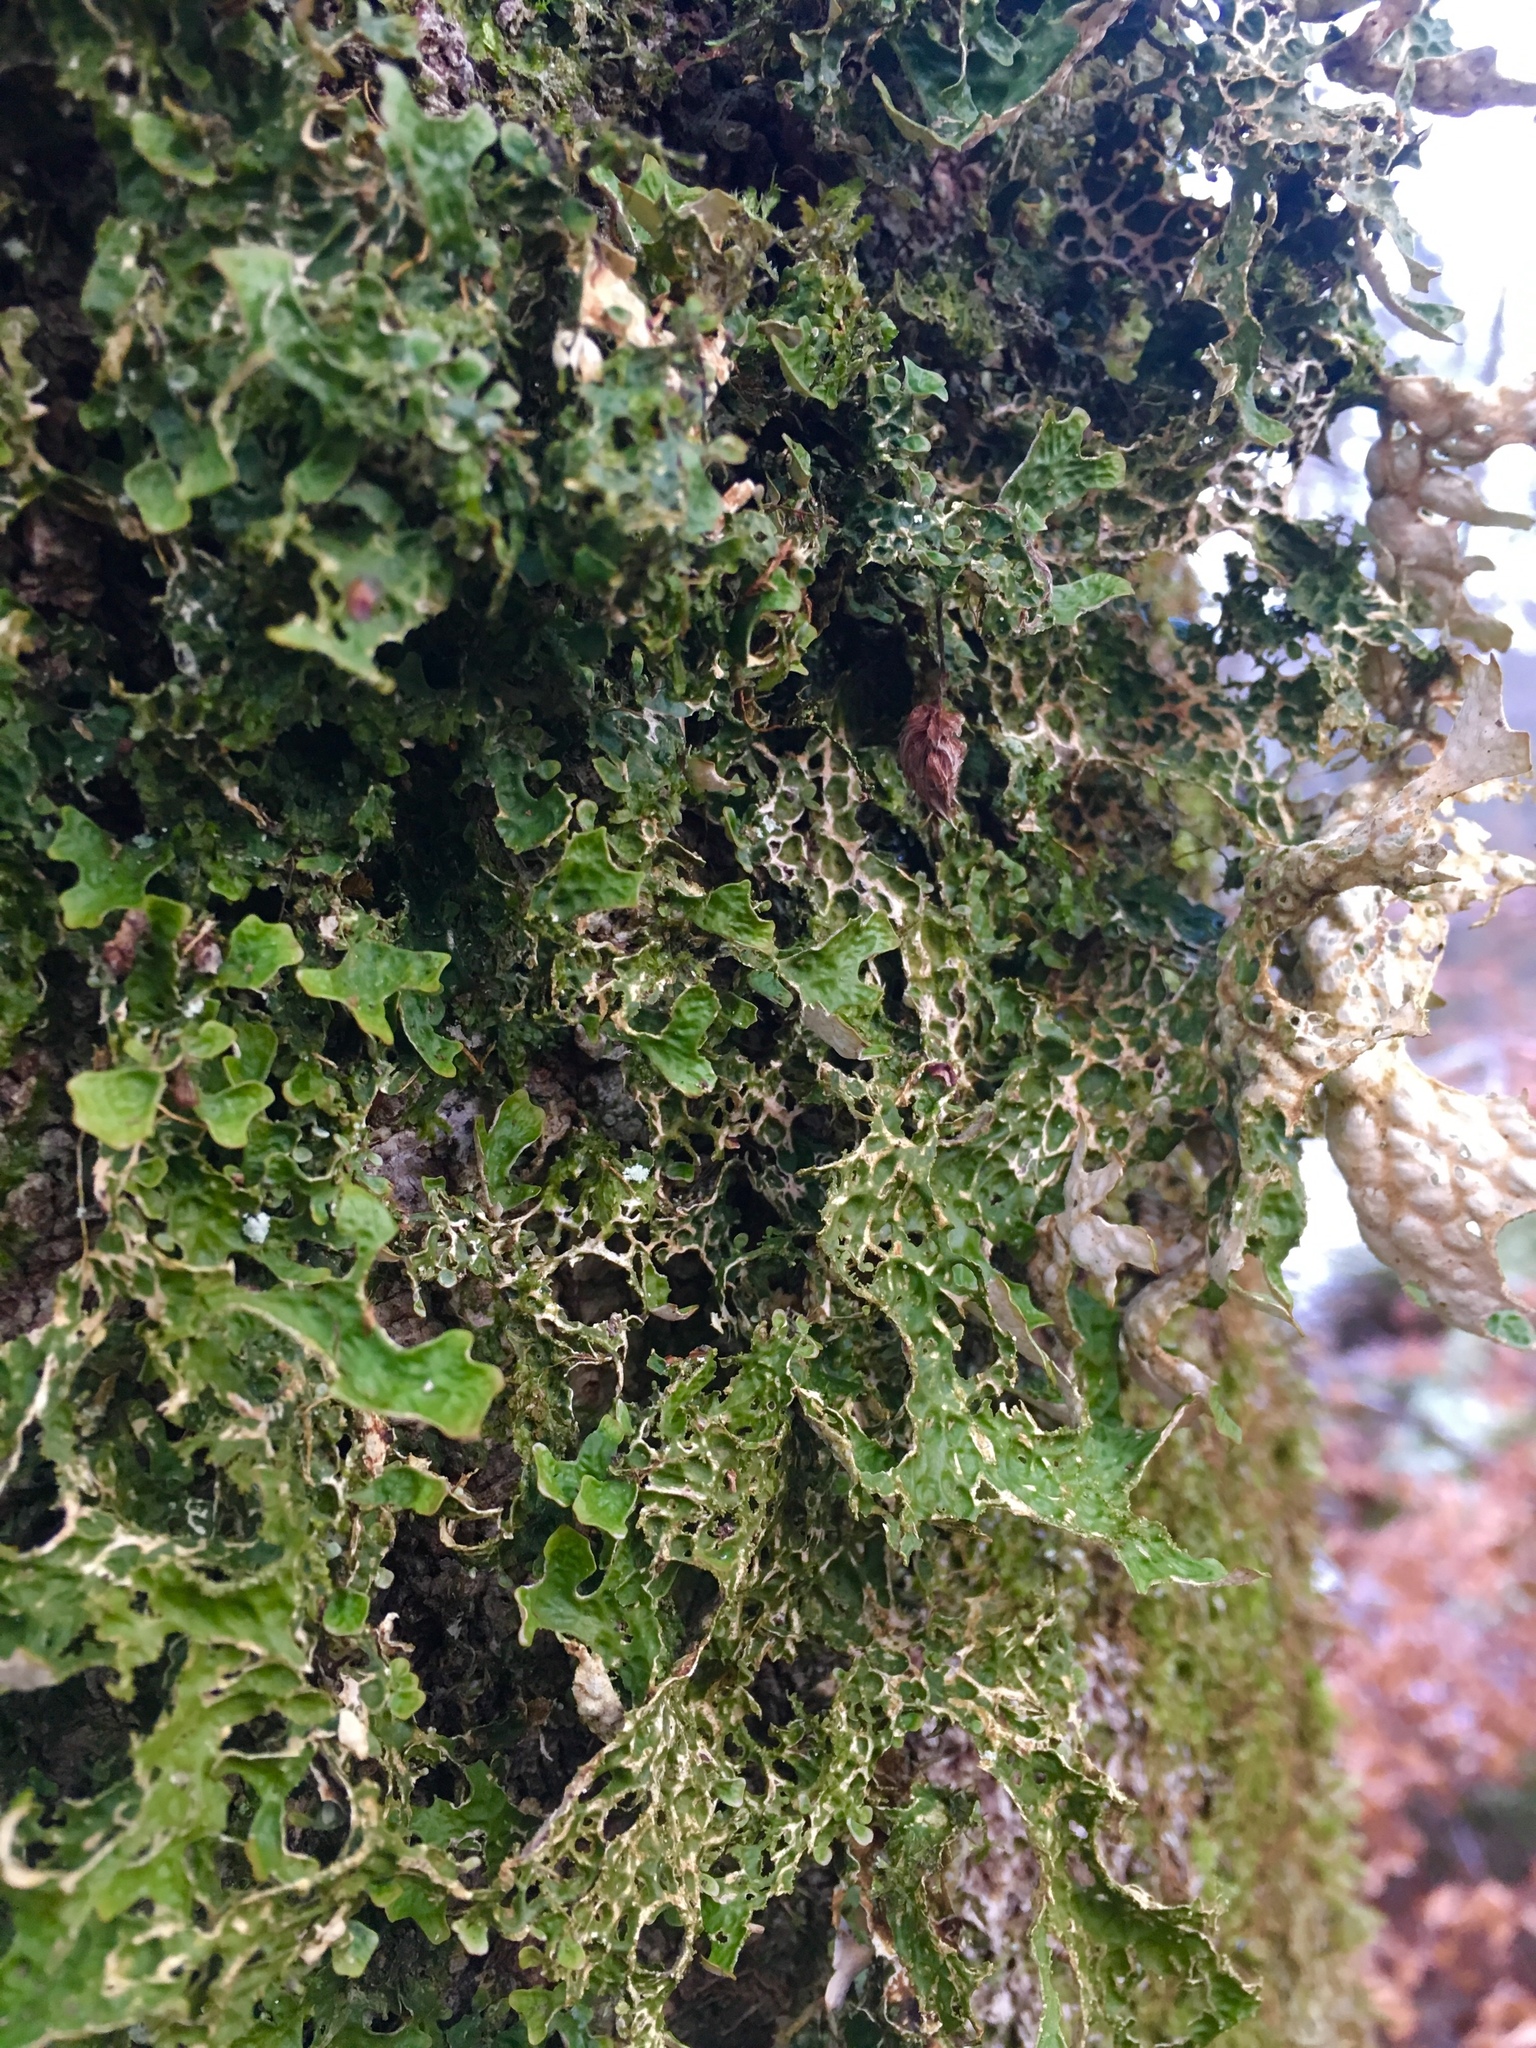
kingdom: Fungi
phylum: Ascomycota
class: Lecanoromycetes
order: Peltigerales
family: Lobariaceae
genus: Lobaria
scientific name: Lobaria pulmonaria
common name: Lungwort
